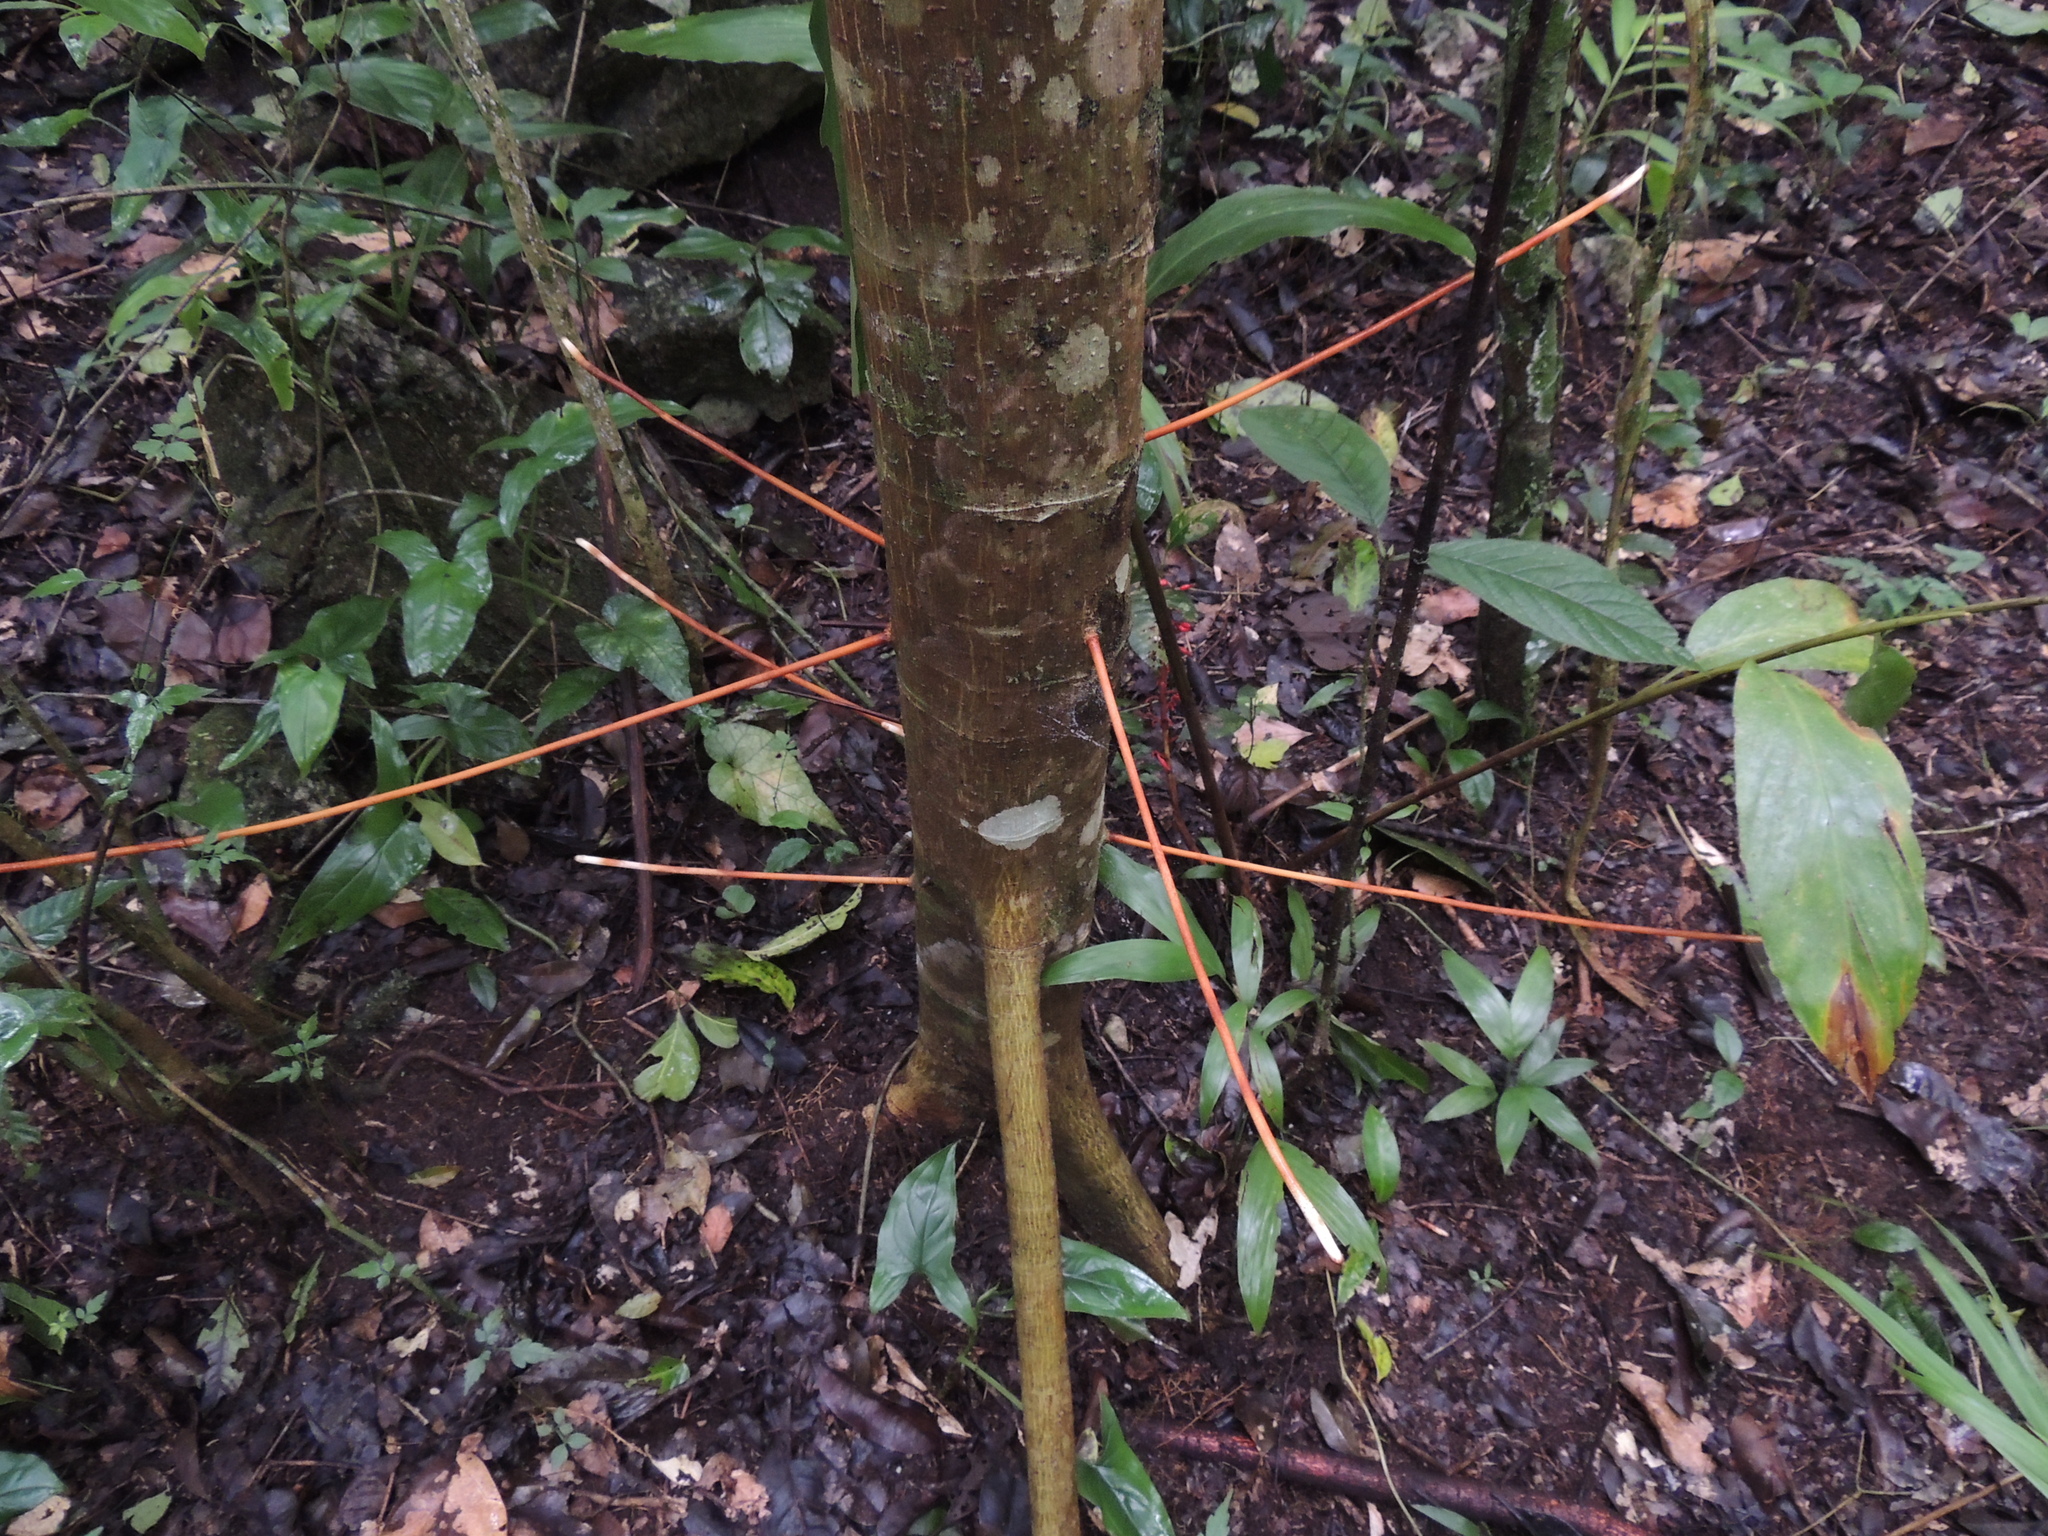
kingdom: Plantae
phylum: Tracheophyta
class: Magnoliopsida
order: Lamiales
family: Acanthaceae
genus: Bravaisia
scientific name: Bravaisia integerrima
